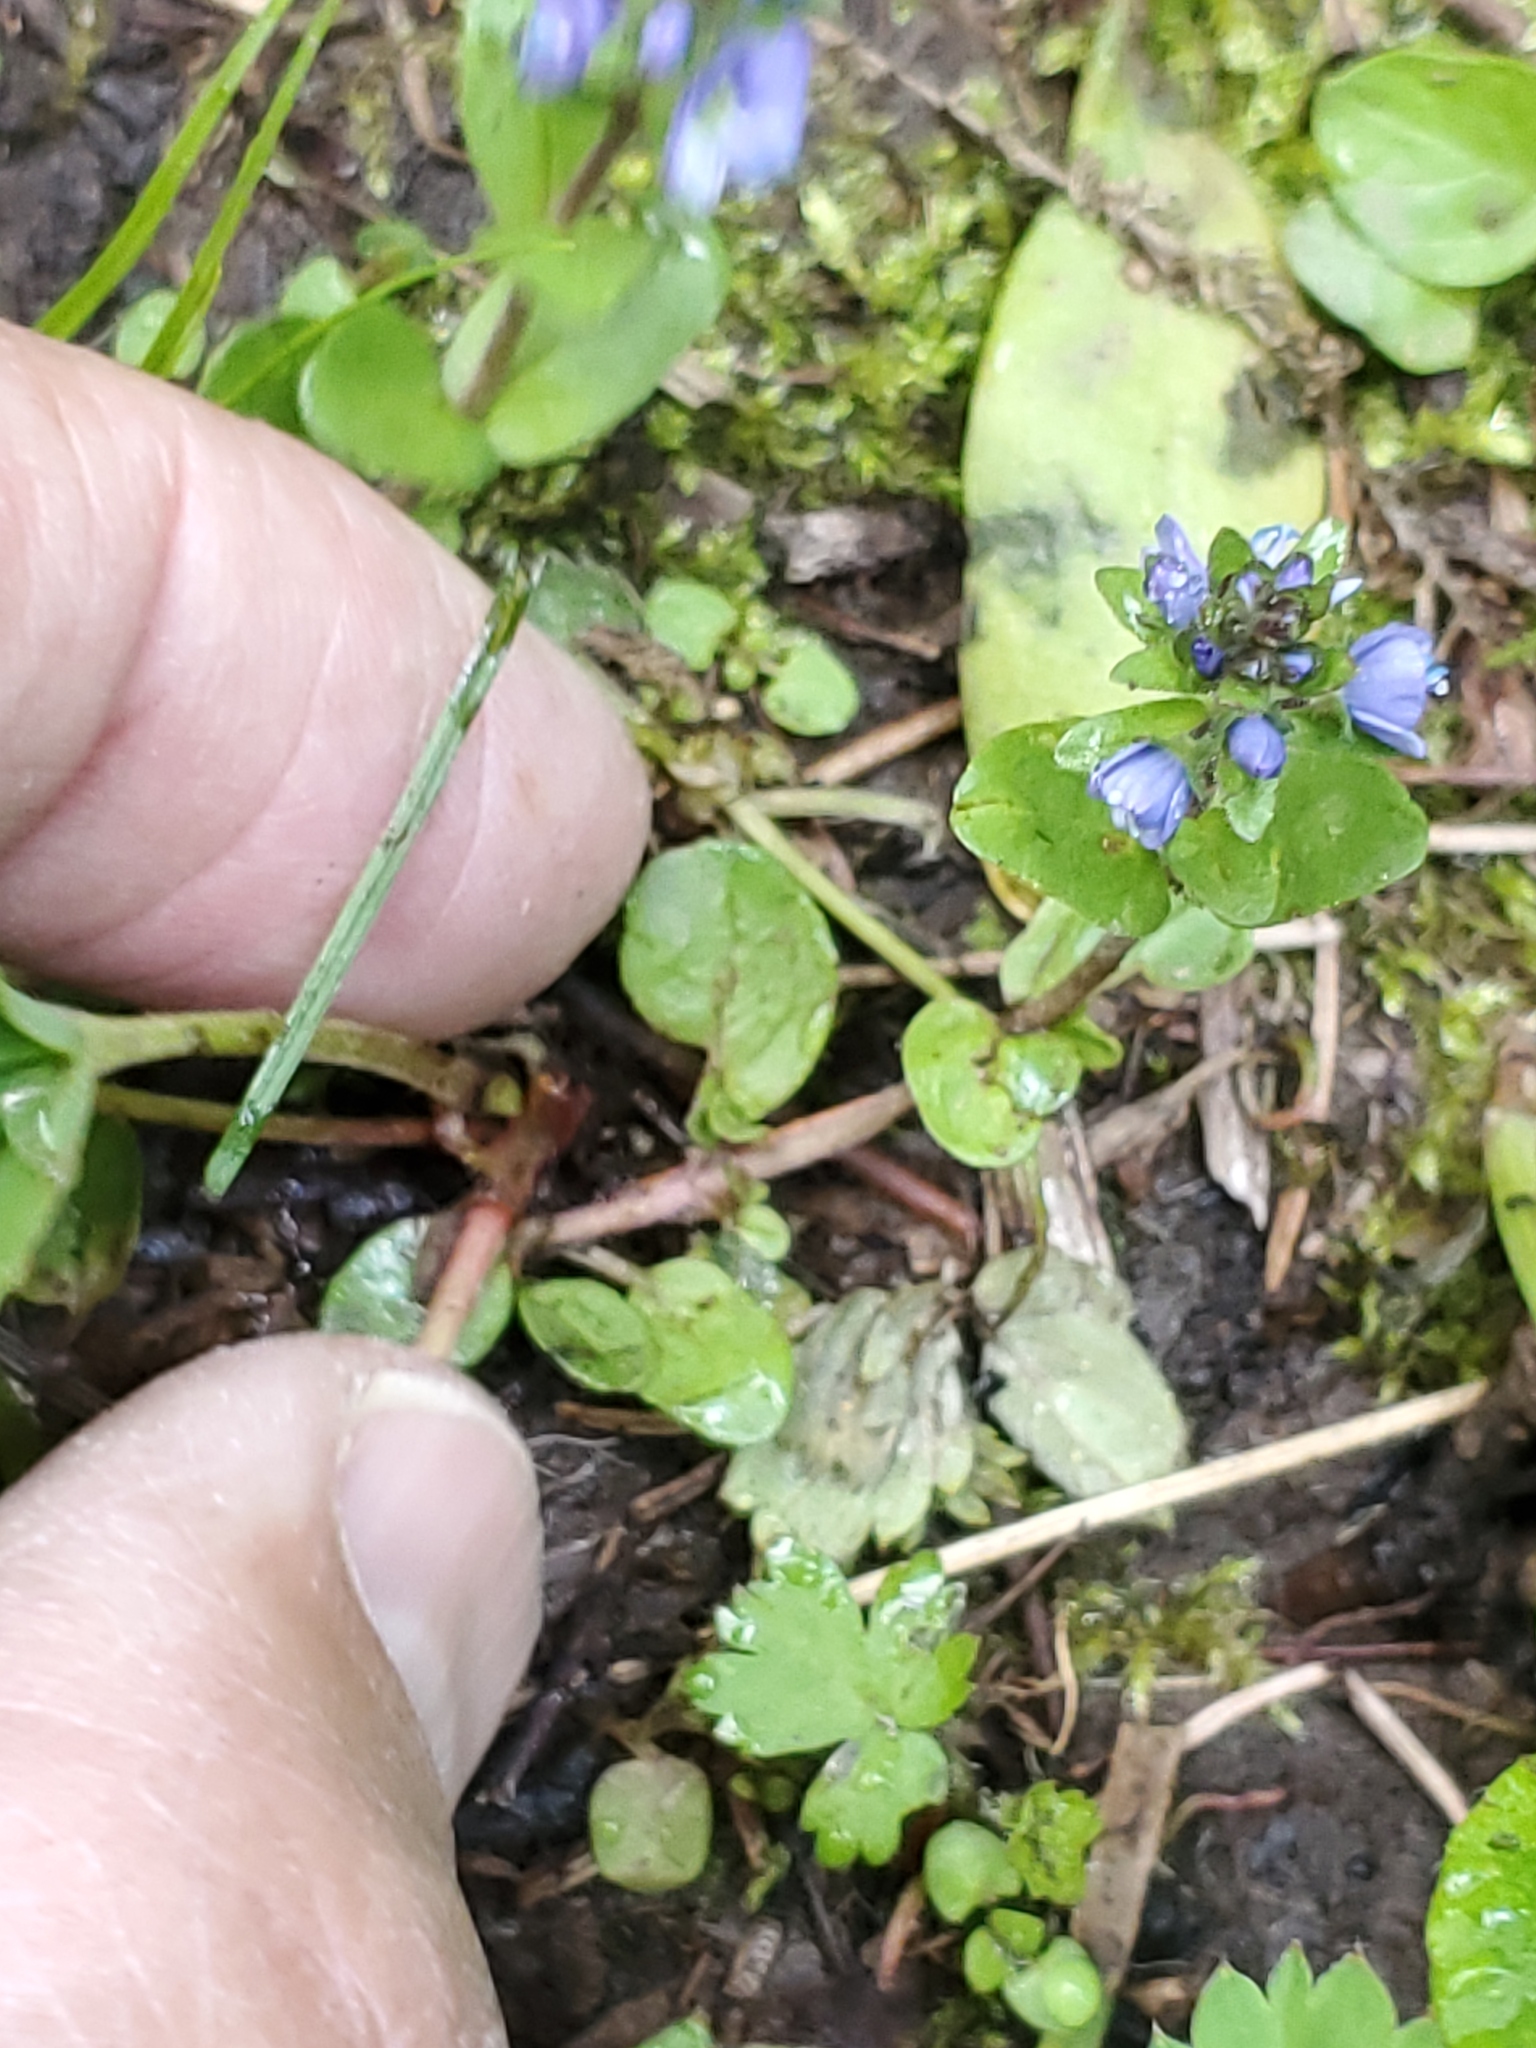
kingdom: Plantae
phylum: Tracheophyta
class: Magnoliopsida
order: Lamiales
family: Plantaginaceae
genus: Veronica
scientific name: Veronica serpyllifolia
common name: Thyme-leaved speedwell
